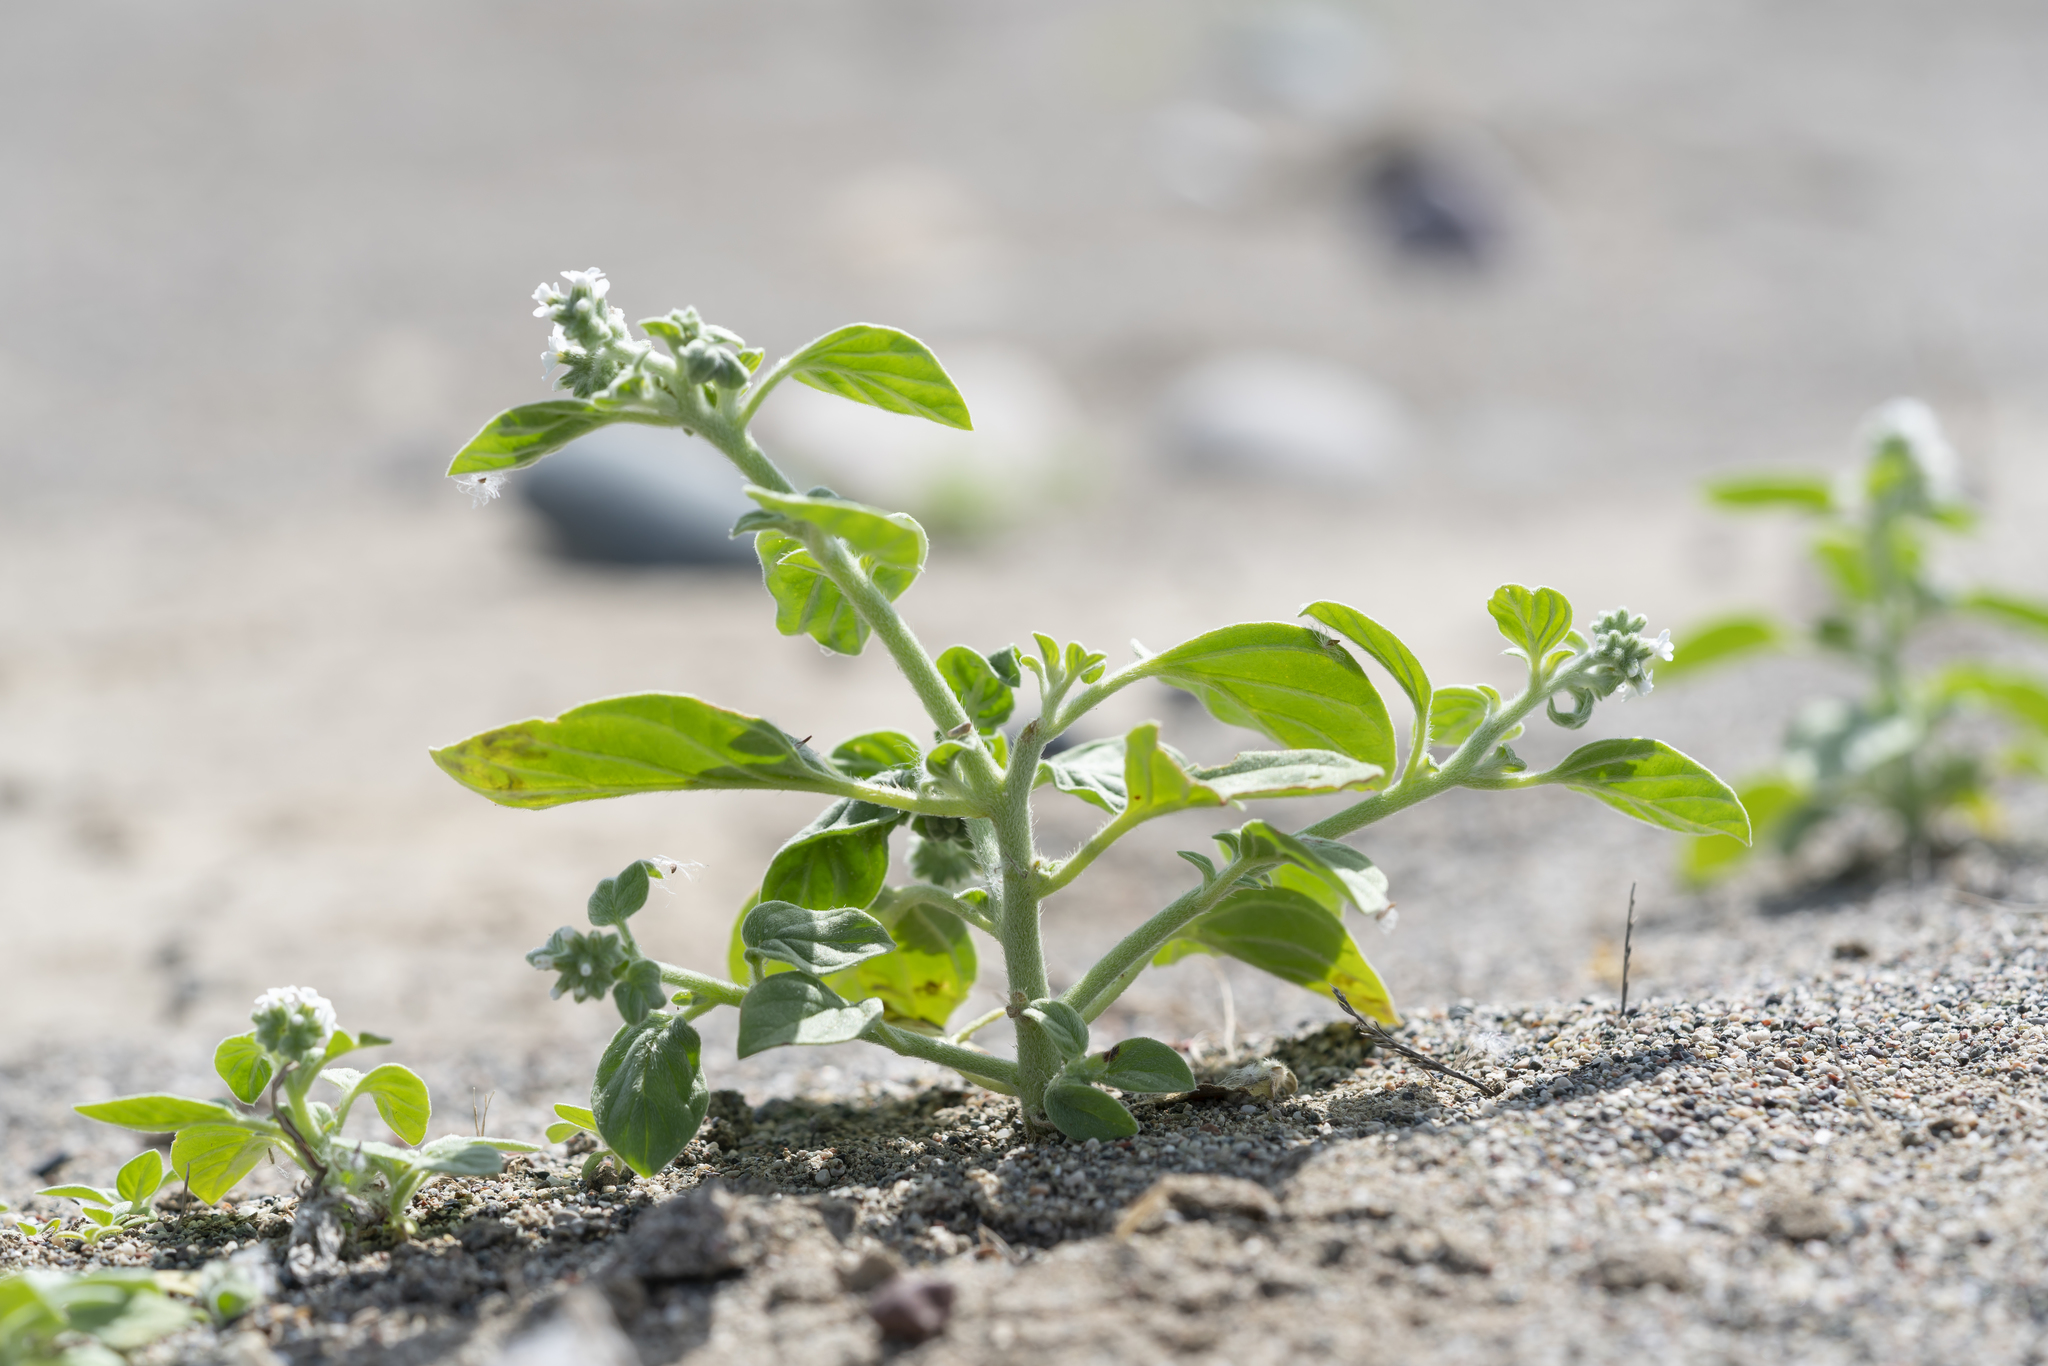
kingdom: Plantae
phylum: Tracheophyta
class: Magnoliopsida
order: Boraginales
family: Heliotropiaceae
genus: Heliotropium
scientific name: Heliotropium dolosum
